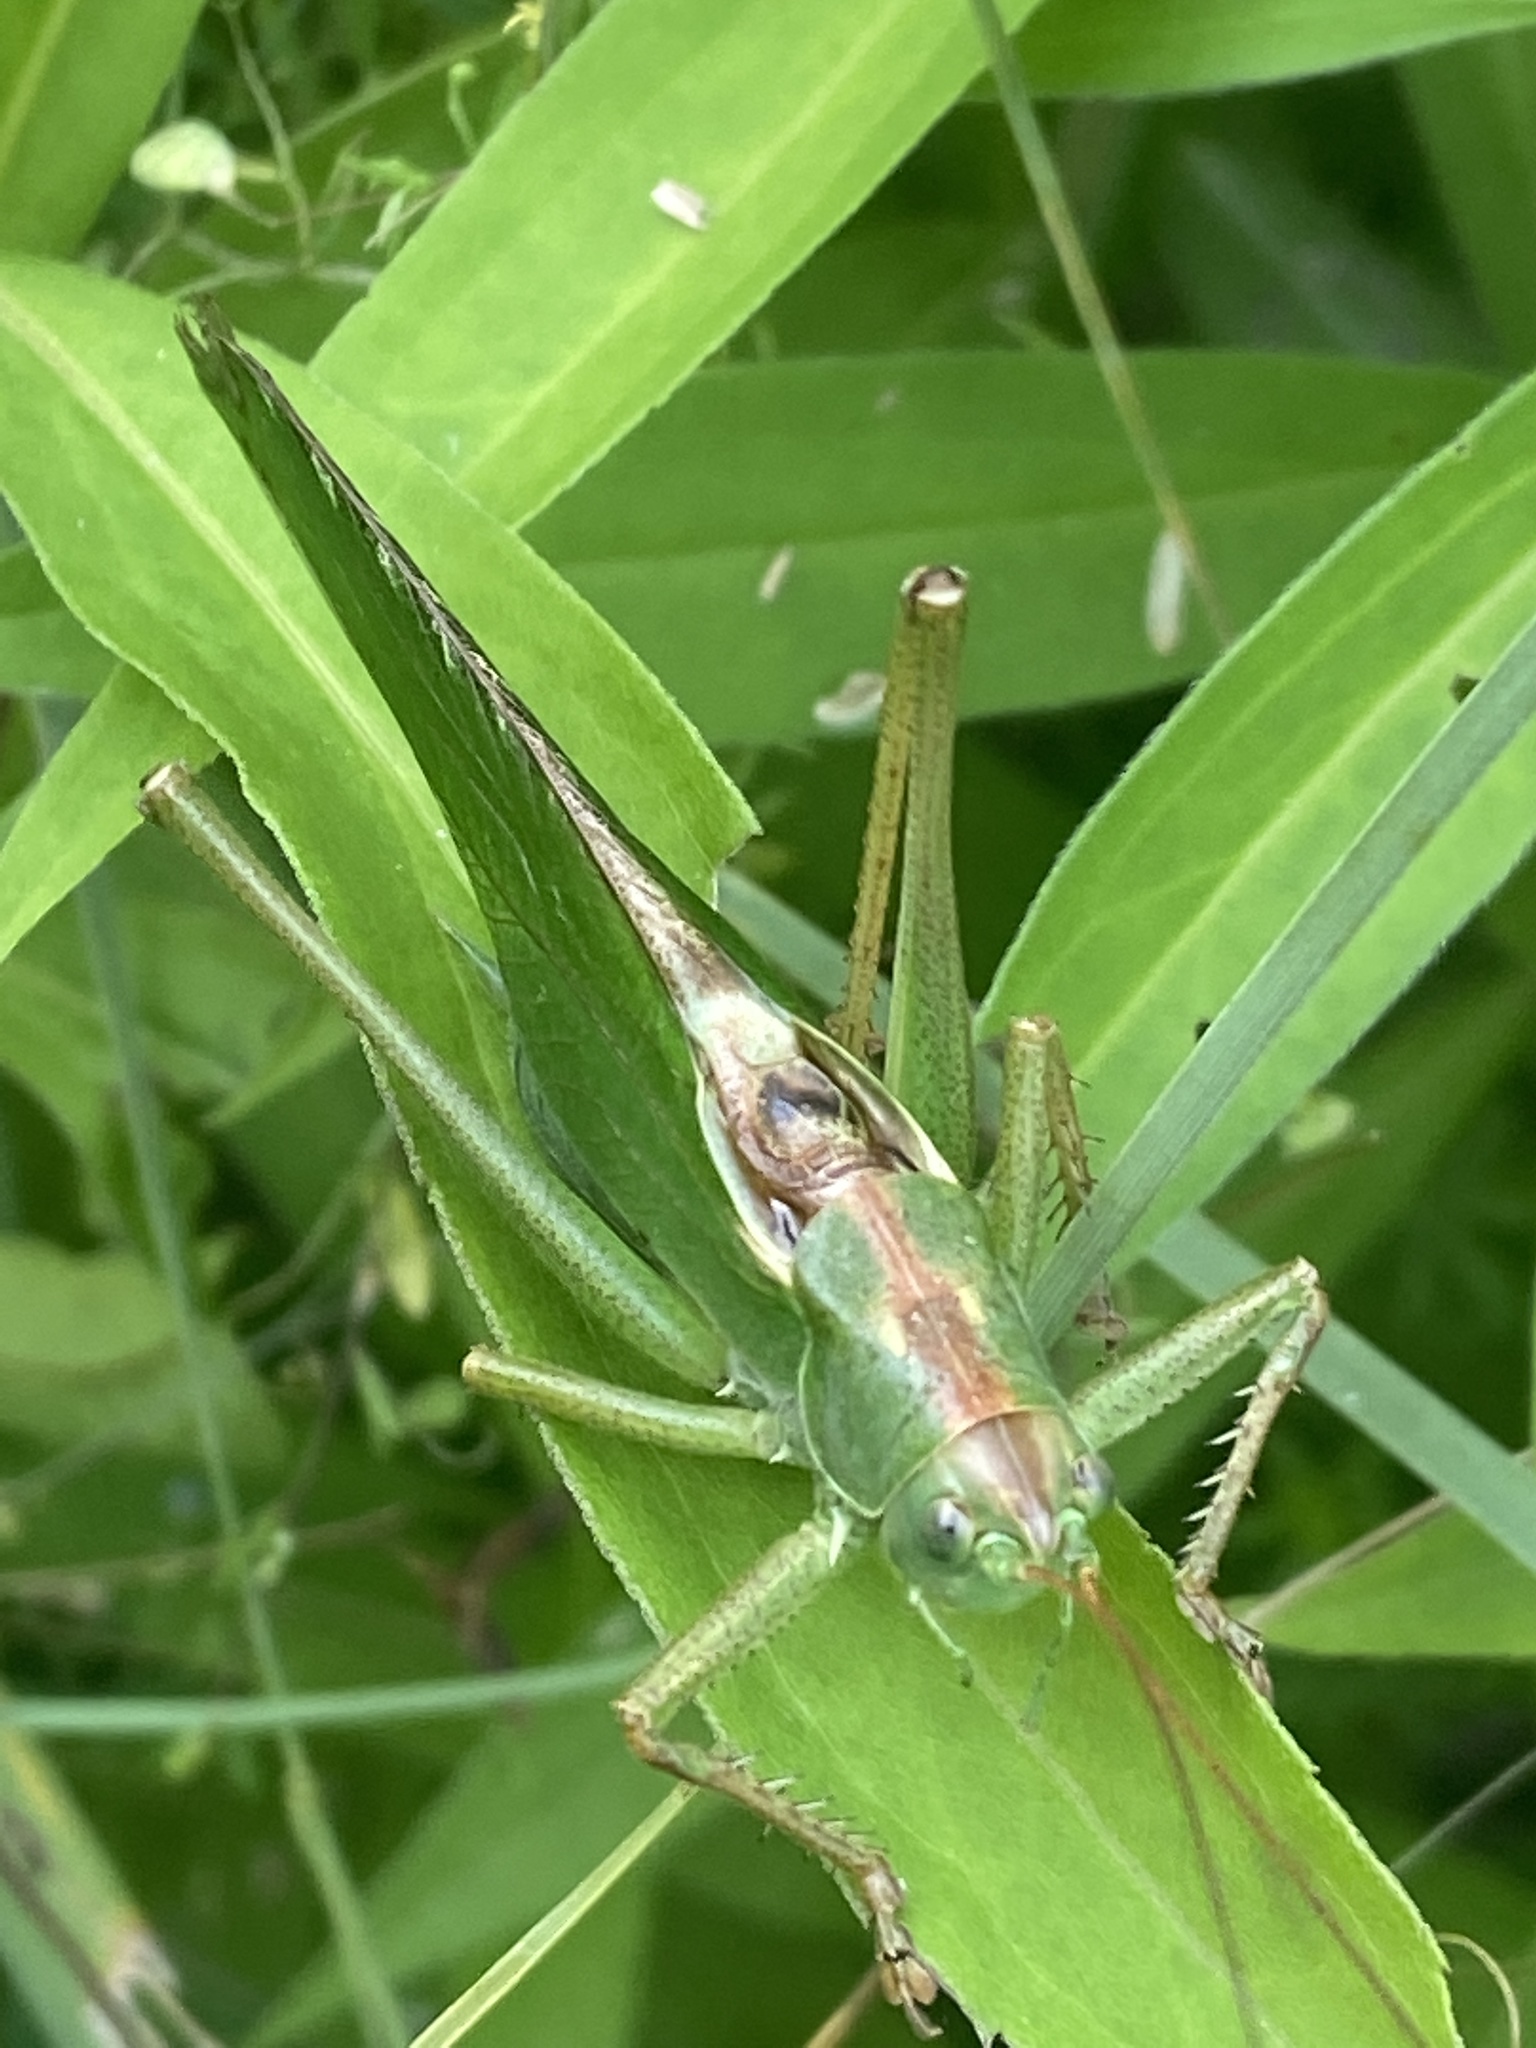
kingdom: Animalia
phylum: Arthropoda
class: Insecta
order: Orthoptera
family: Tettigoniidae
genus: Tettigonia
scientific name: Tettigonia viridissima
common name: Great green bush-cricket
